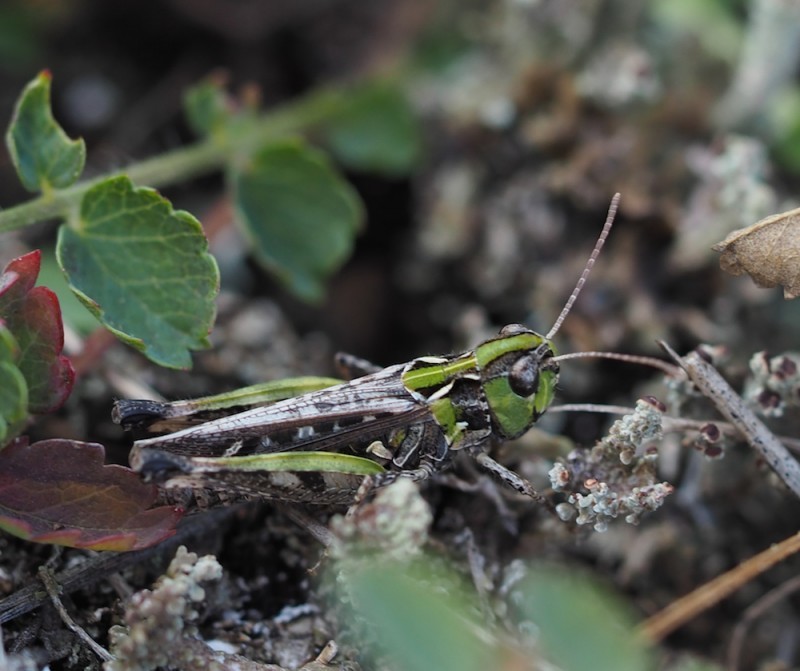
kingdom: Animalia
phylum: Arthropoda
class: Insecta
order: Orthoptera
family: Acrididae
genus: Myrmeleotettix
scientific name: Myrmeleotettix maculatus
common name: Mottled grasshopper
